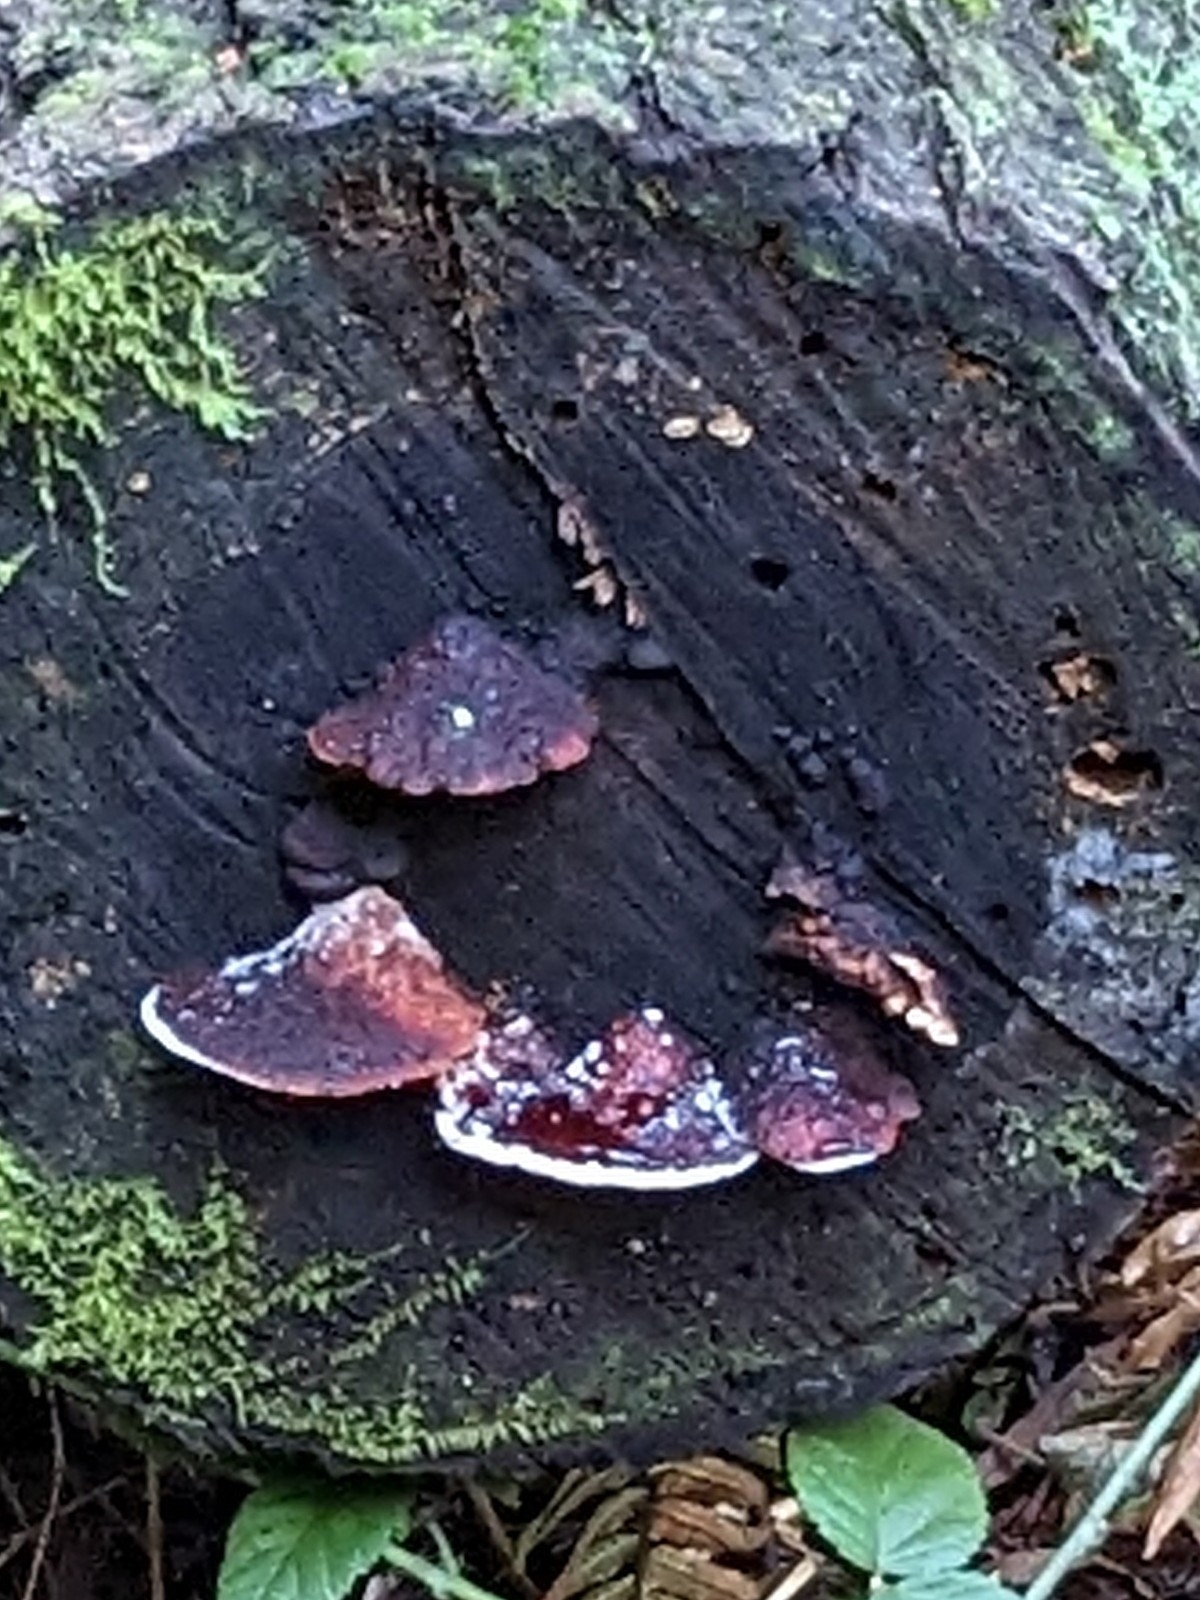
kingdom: Fungi
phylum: Basidiomycota
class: Agaricomycetes
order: Polyporales
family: Fomitopsidaceae
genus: Rhodofomes
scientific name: Rhodofomes cajanderi
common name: Rosy conk
